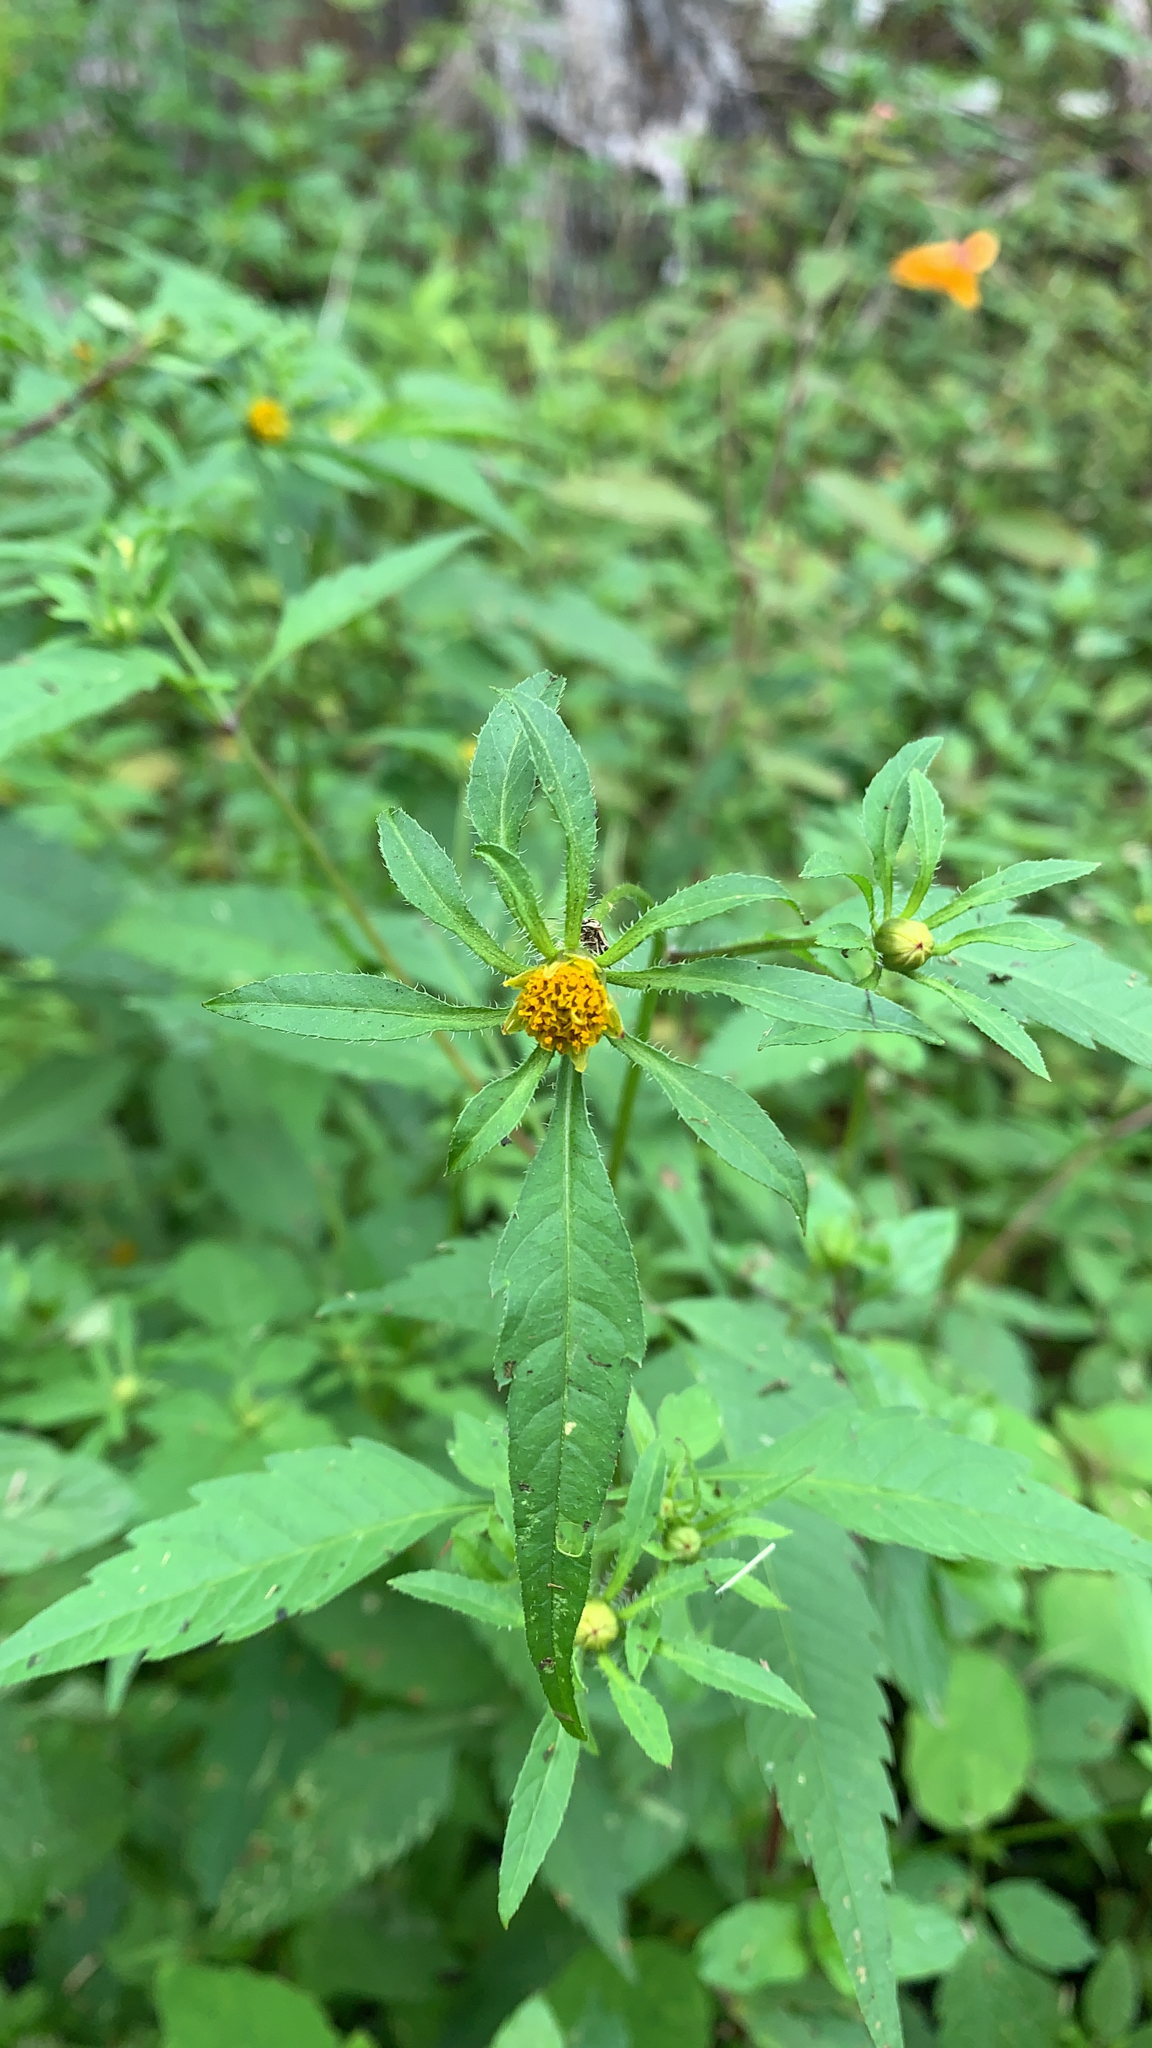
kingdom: Plantae
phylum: Tracheophyta
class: Magnoliopsida
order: Asterales
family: Asteraceae
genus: Bidens
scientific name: Bidens frondosa
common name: Beggarticks
